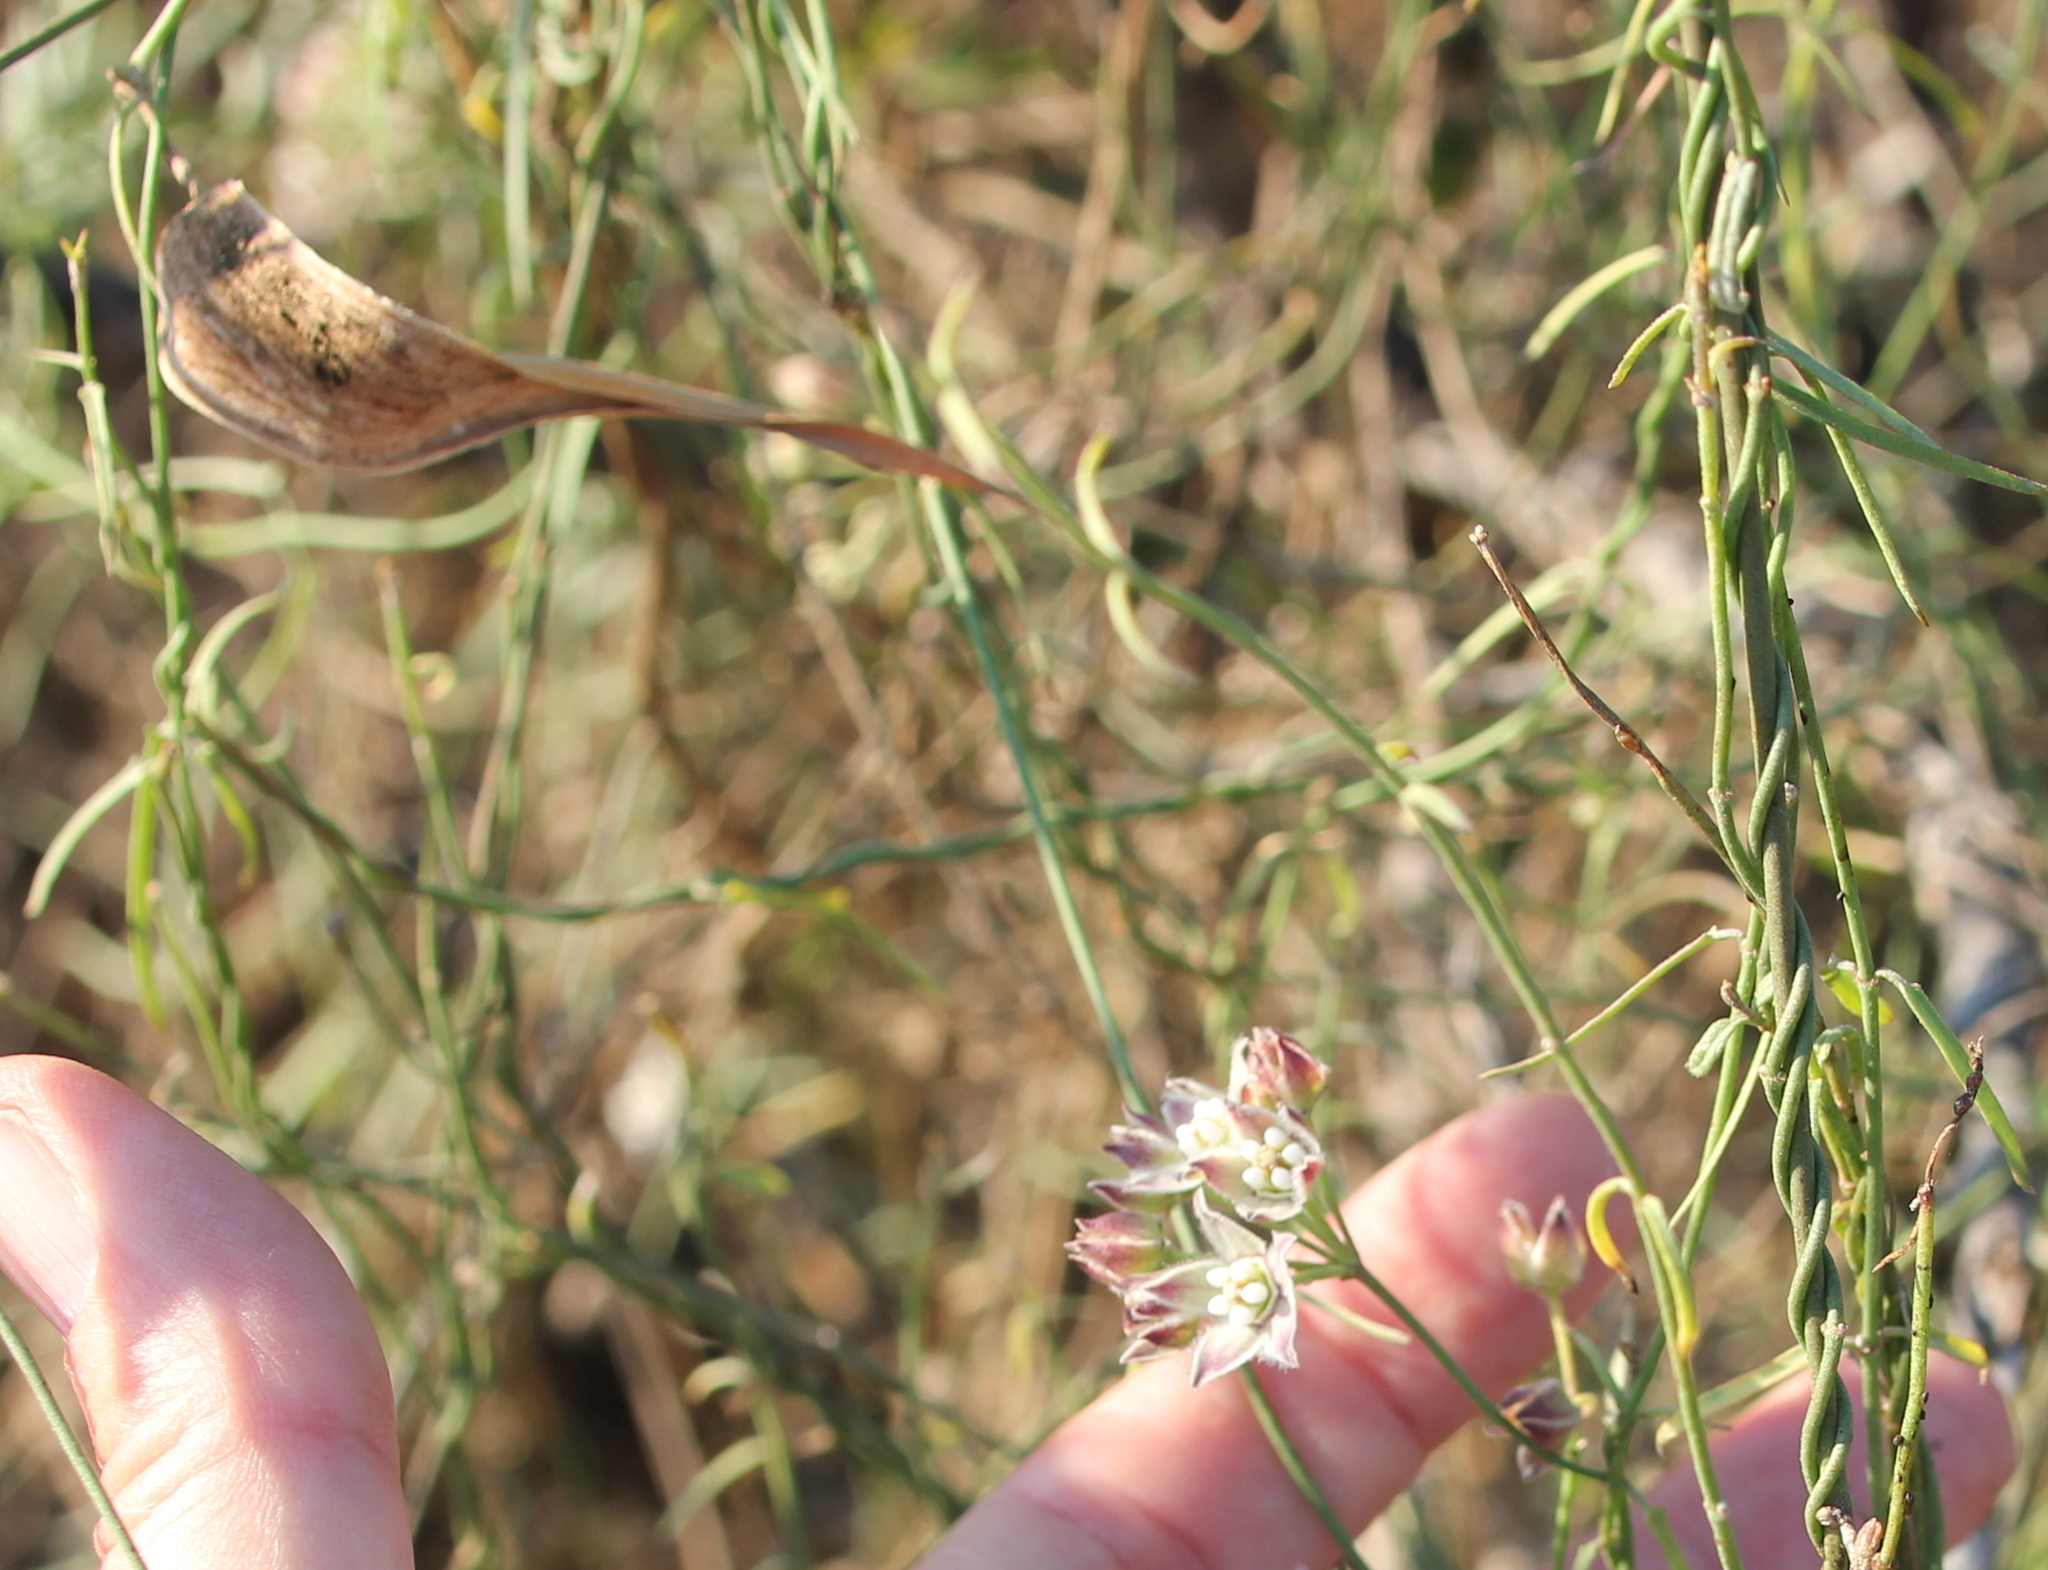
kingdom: Plantae
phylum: Tracheophyta
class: Magnoliopsida
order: Gentianales
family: Apocynaceae
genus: Funastrum
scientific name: Funastrum heterophyllum
